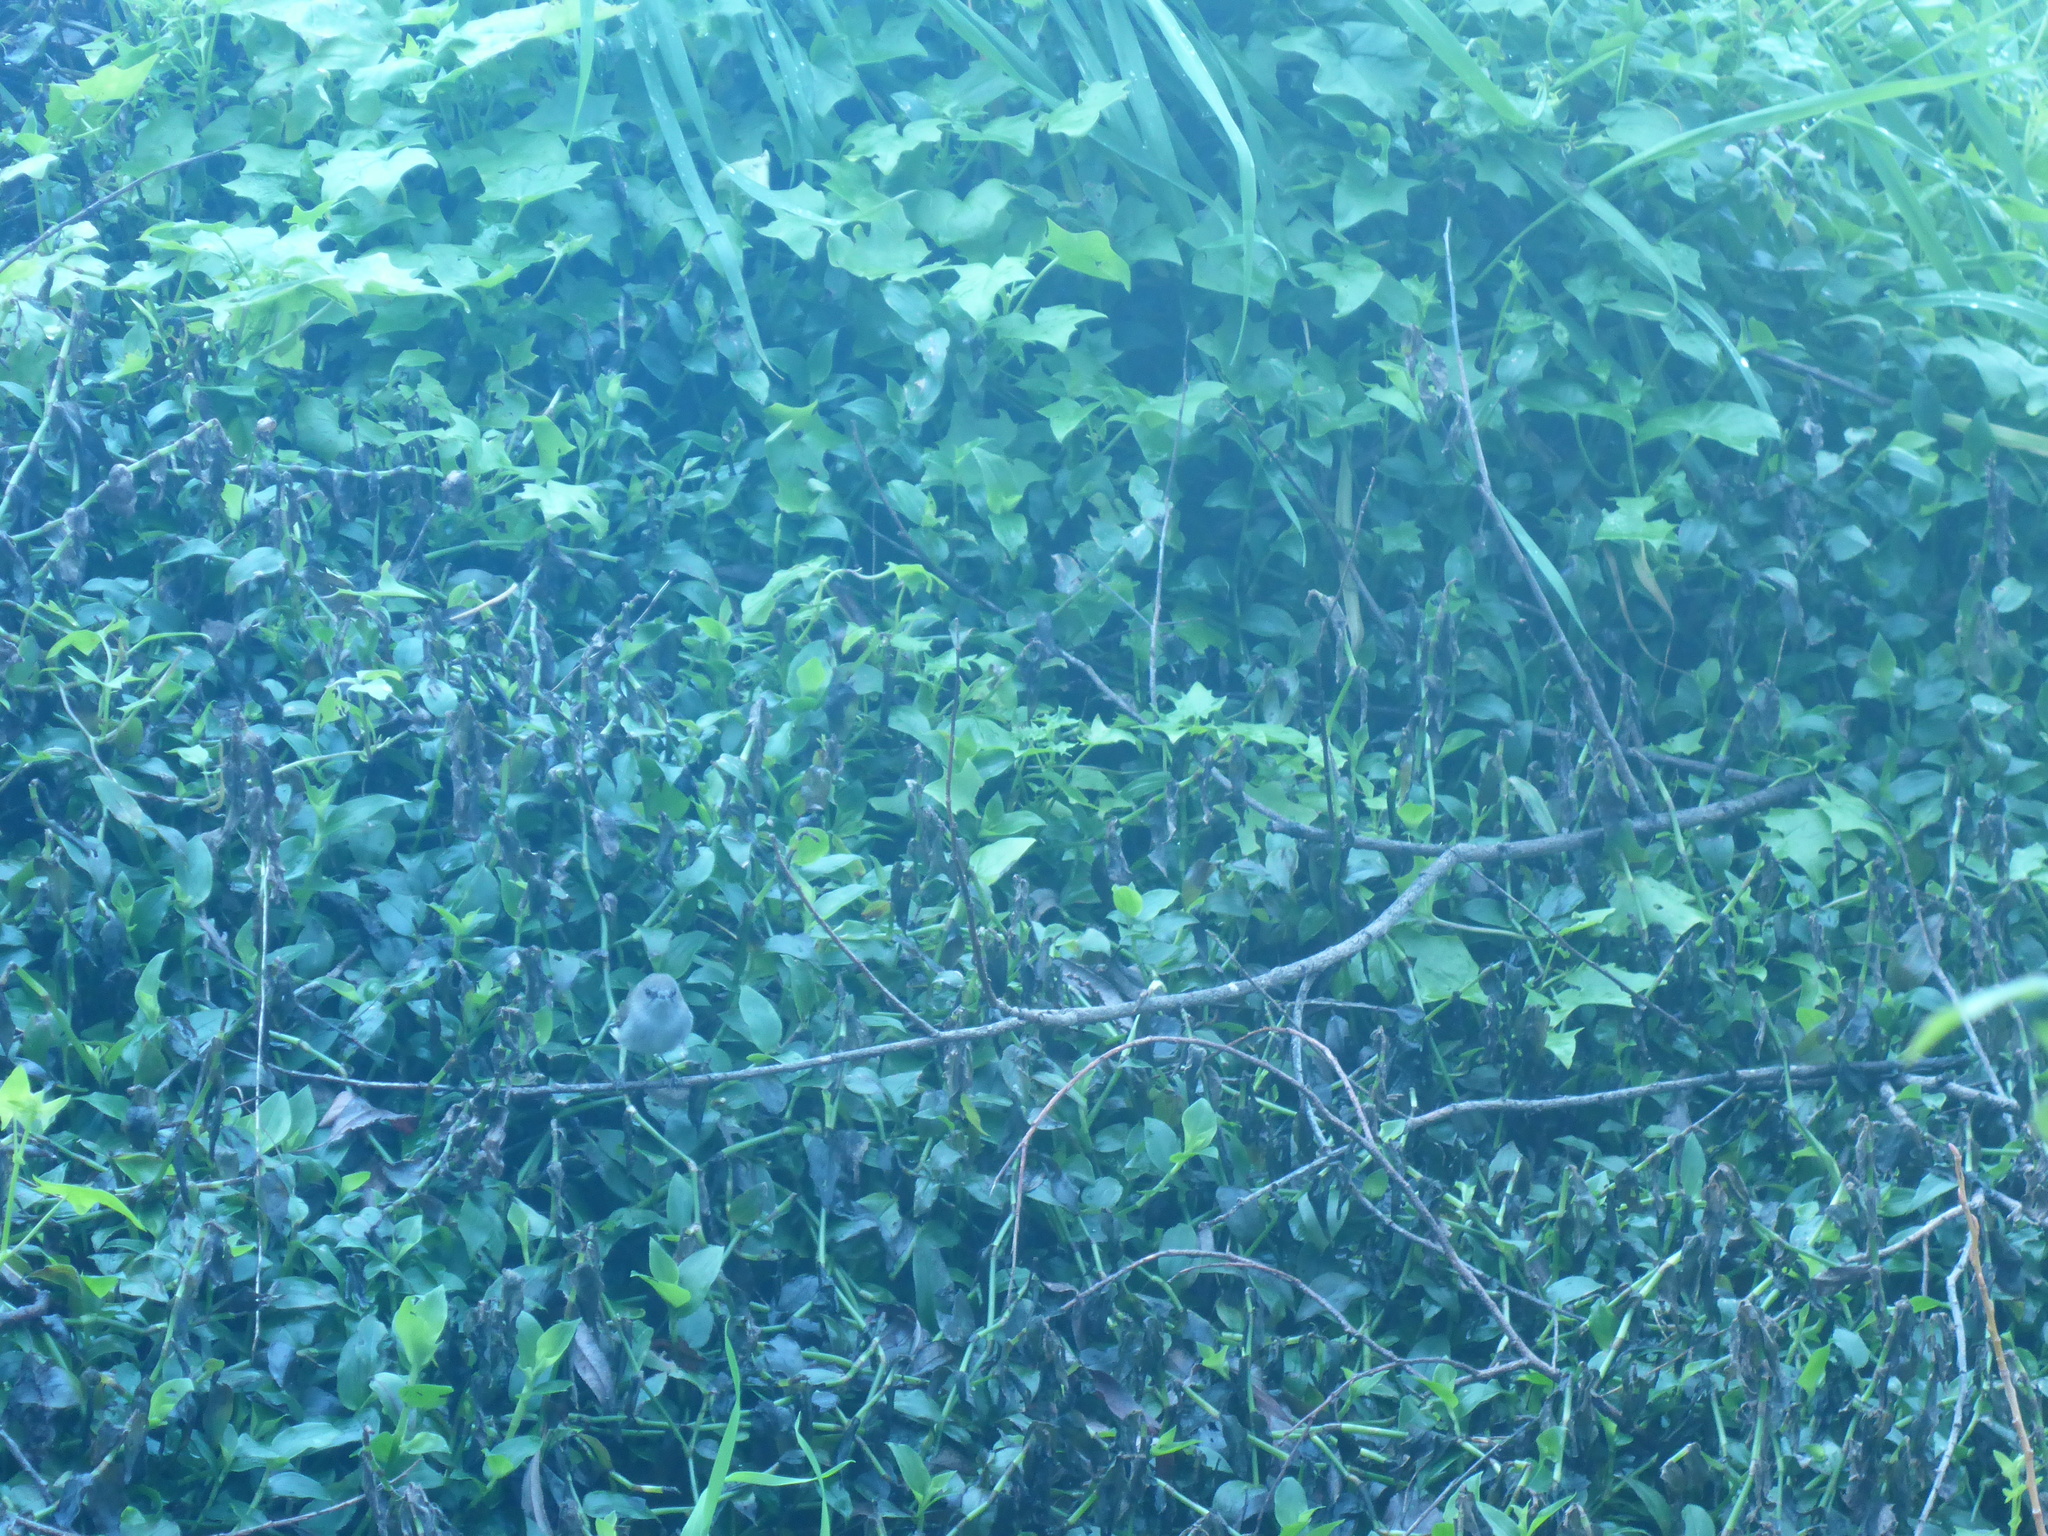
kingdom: Animalia
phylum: Chordata
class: Aves
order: Passeriformes
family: Acanthizidae
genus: Gerygone
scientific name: Gerygone igata
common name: Grey gerygone
